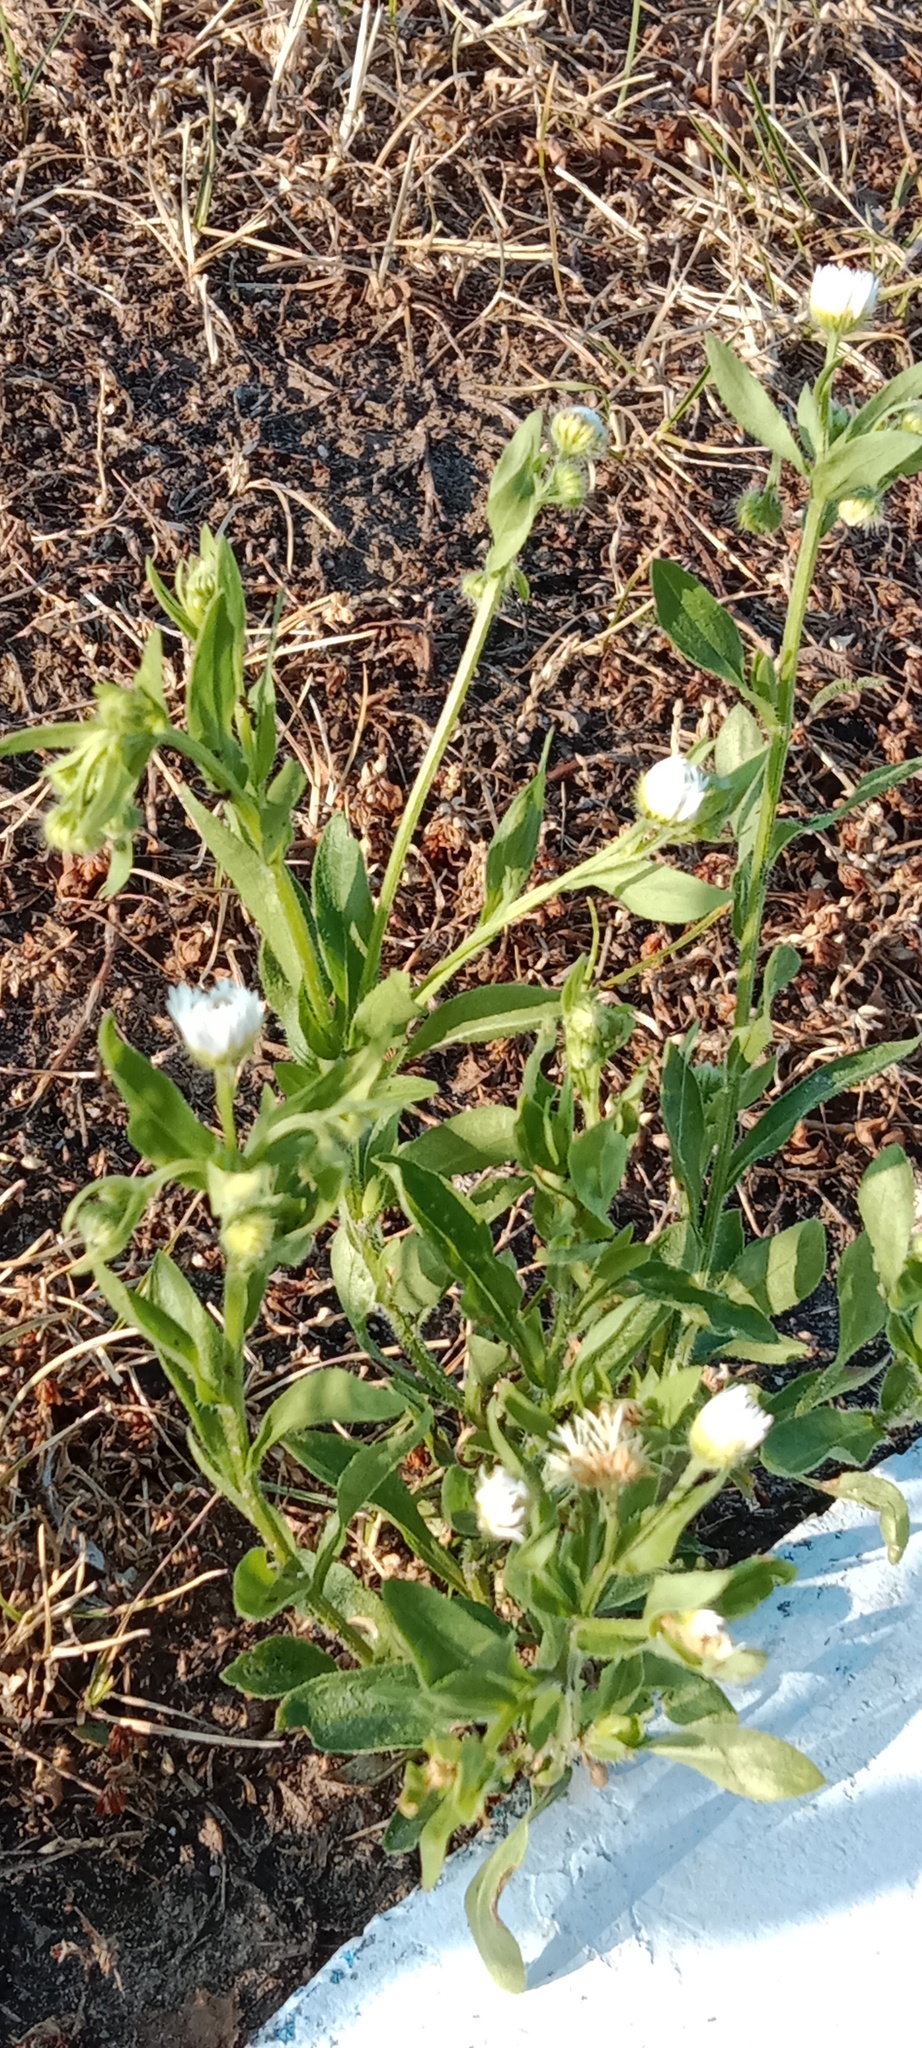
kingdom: Plantae
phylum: Tracheophyta
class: Magnoliopsida
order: Asterales
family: Asteraceae
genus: Erigeron
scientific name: Erigeron annuus
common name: Tall fleabane
